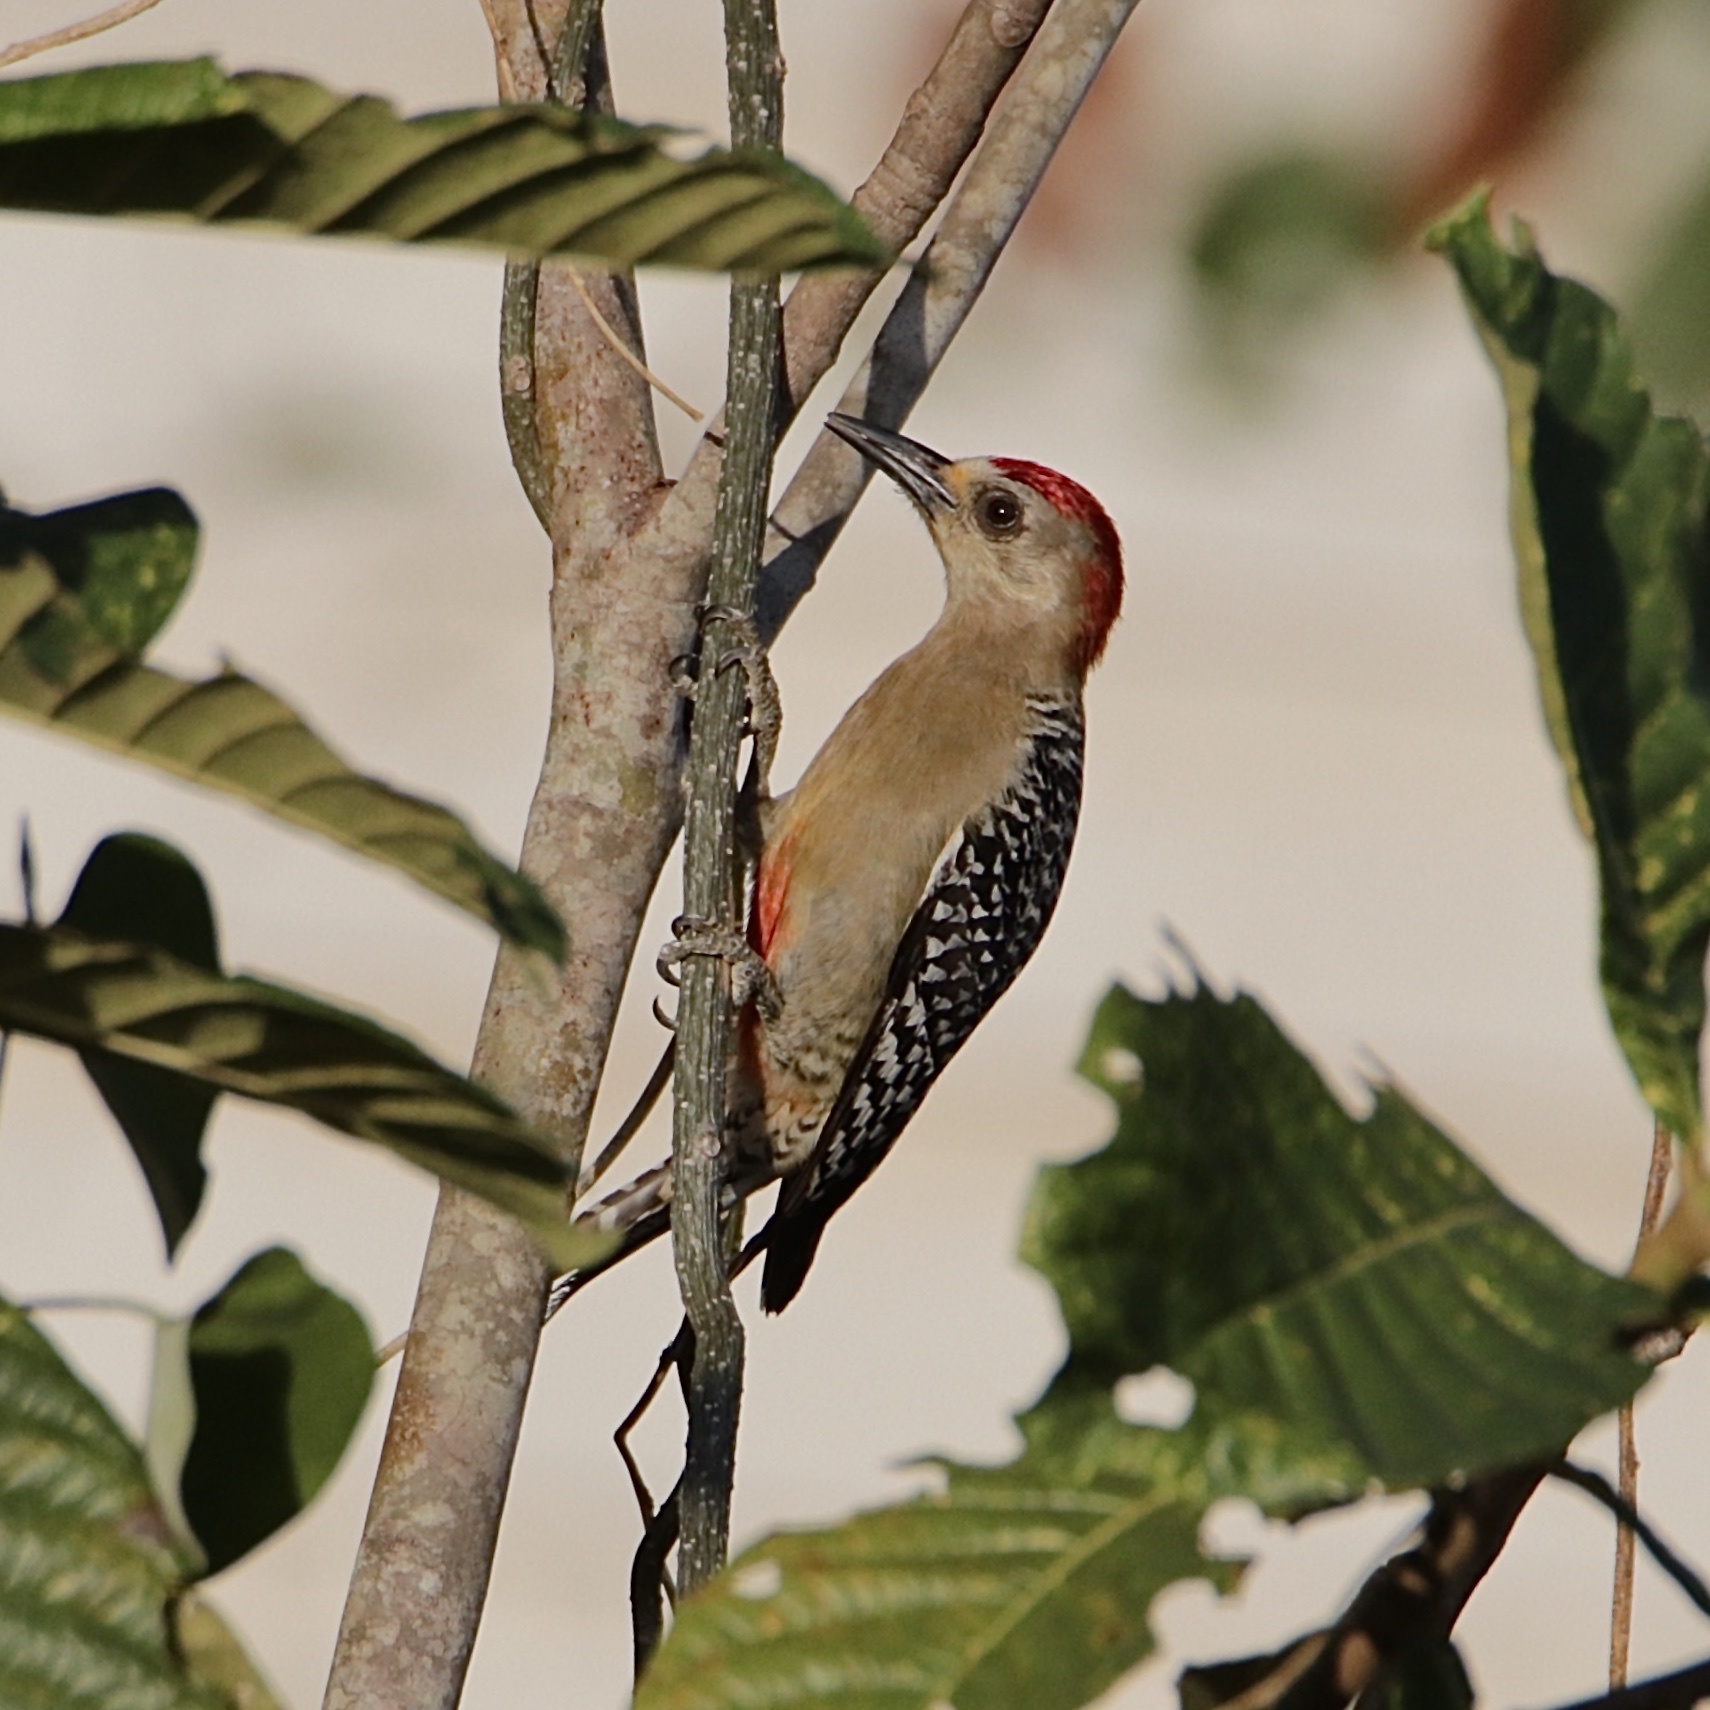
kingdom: Animalia
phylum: Chordata
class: Aves
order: Piciformes
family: Picidae
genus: Melanerpes
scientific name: Melanerpes rubricapillus
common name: Red-crowned woodpecker
